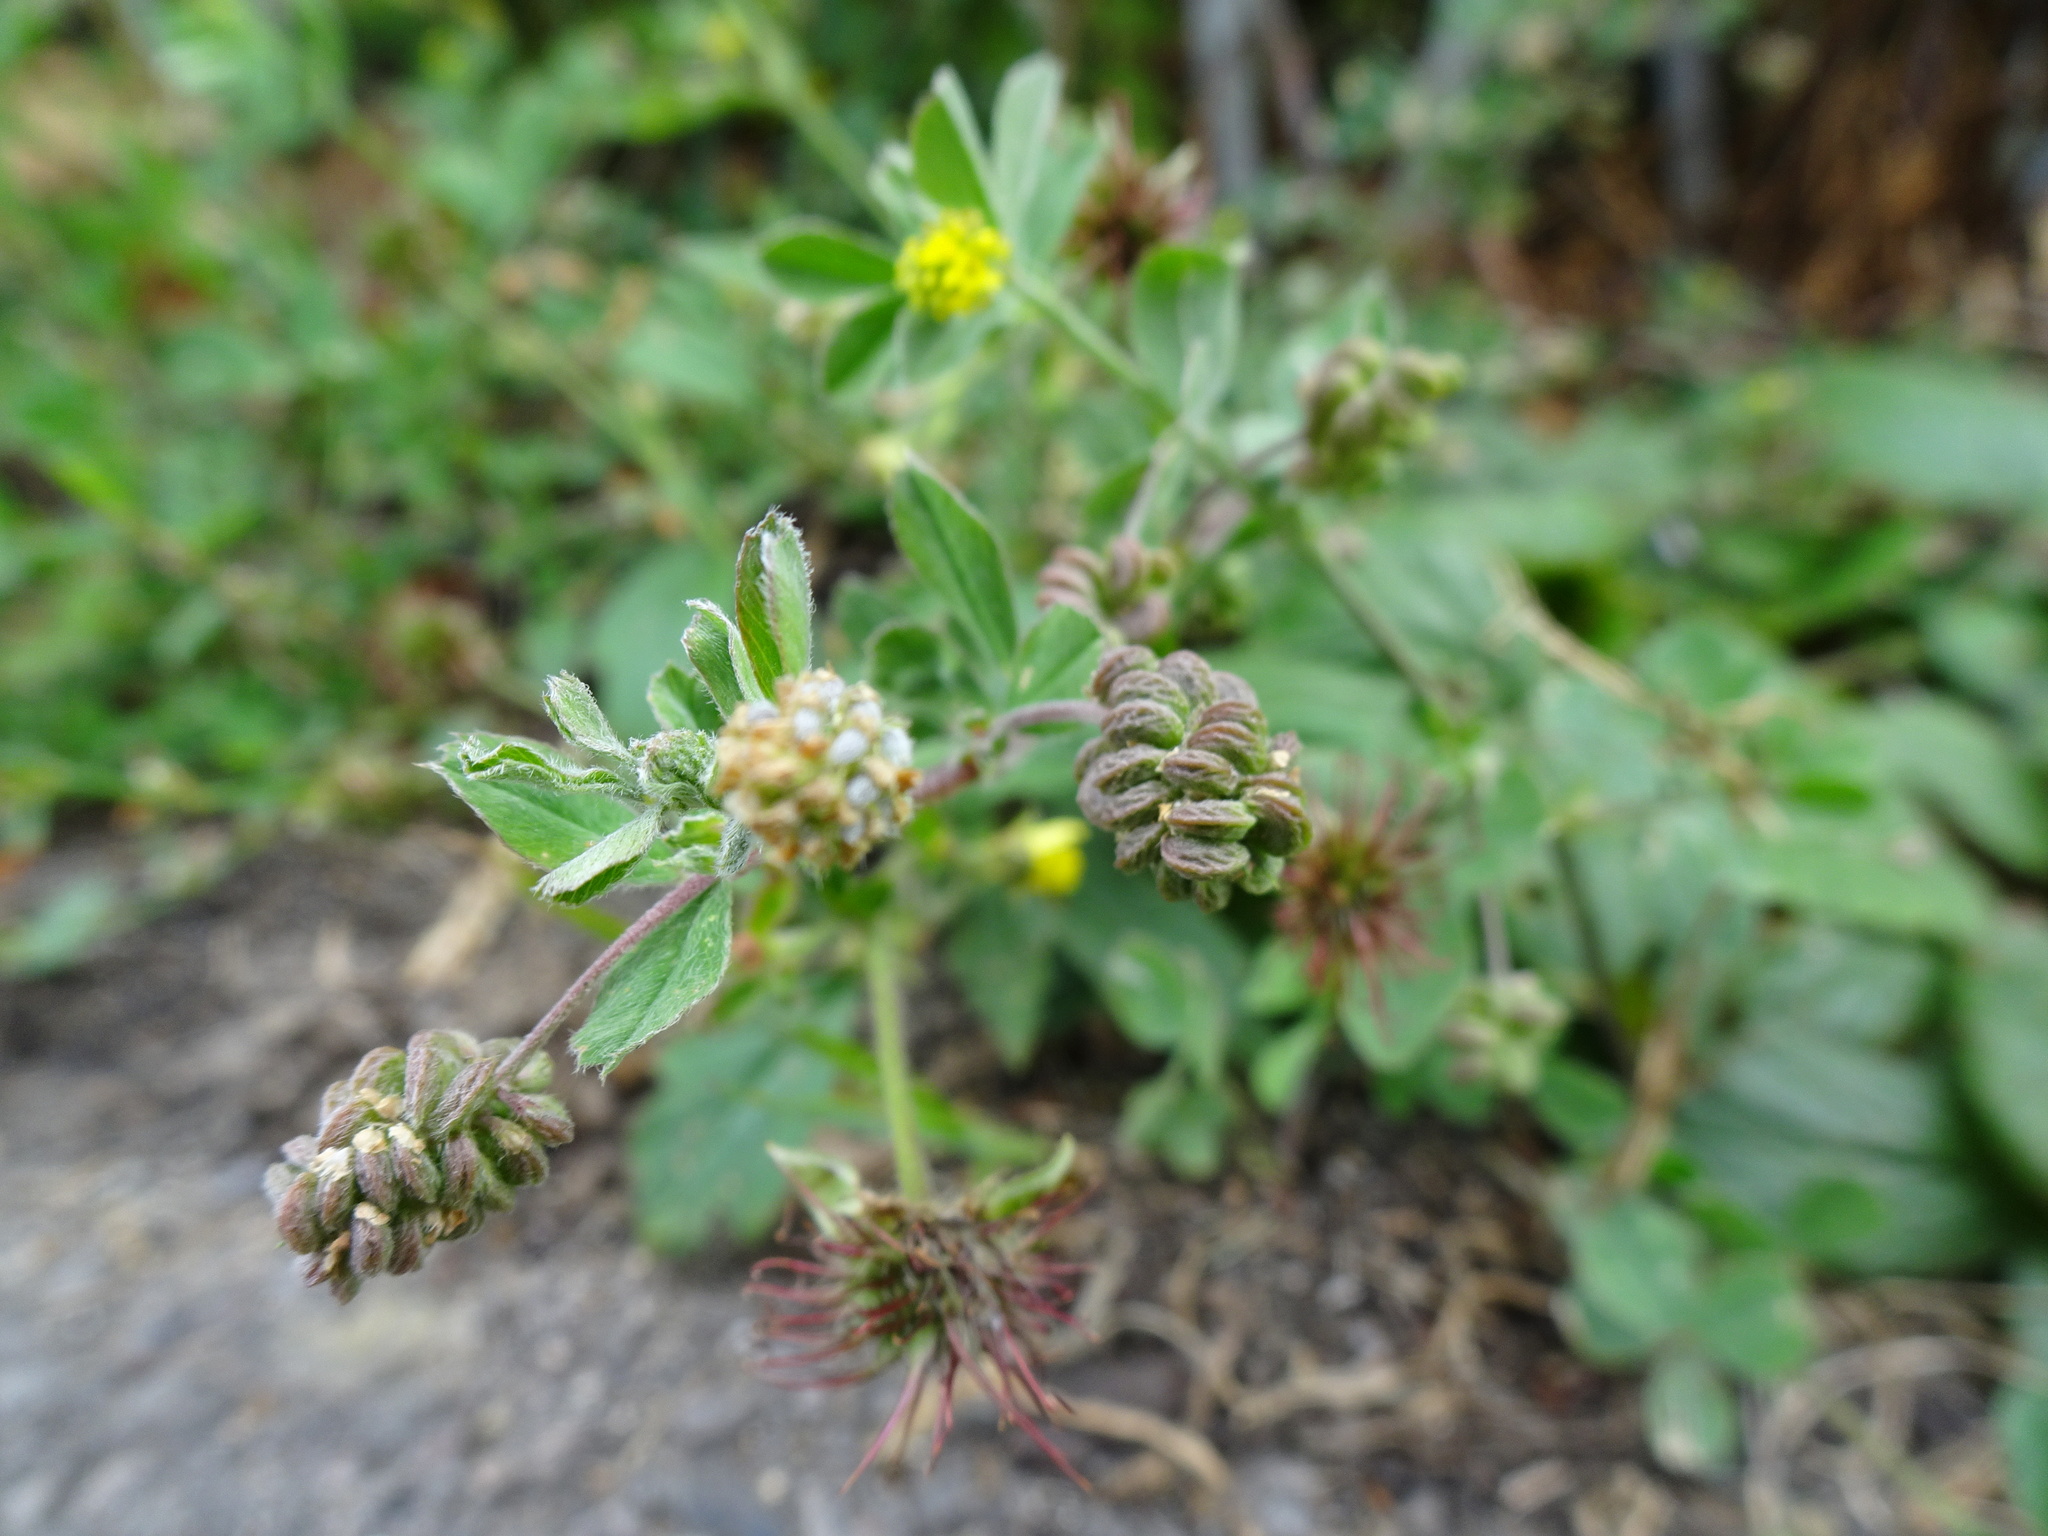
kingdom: Plantae
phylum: Tracheophyta
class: Magnoliopsida
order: Fabales
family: Fabaceae
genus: Medicago
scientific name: Medicago lupulina
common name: Black medick
